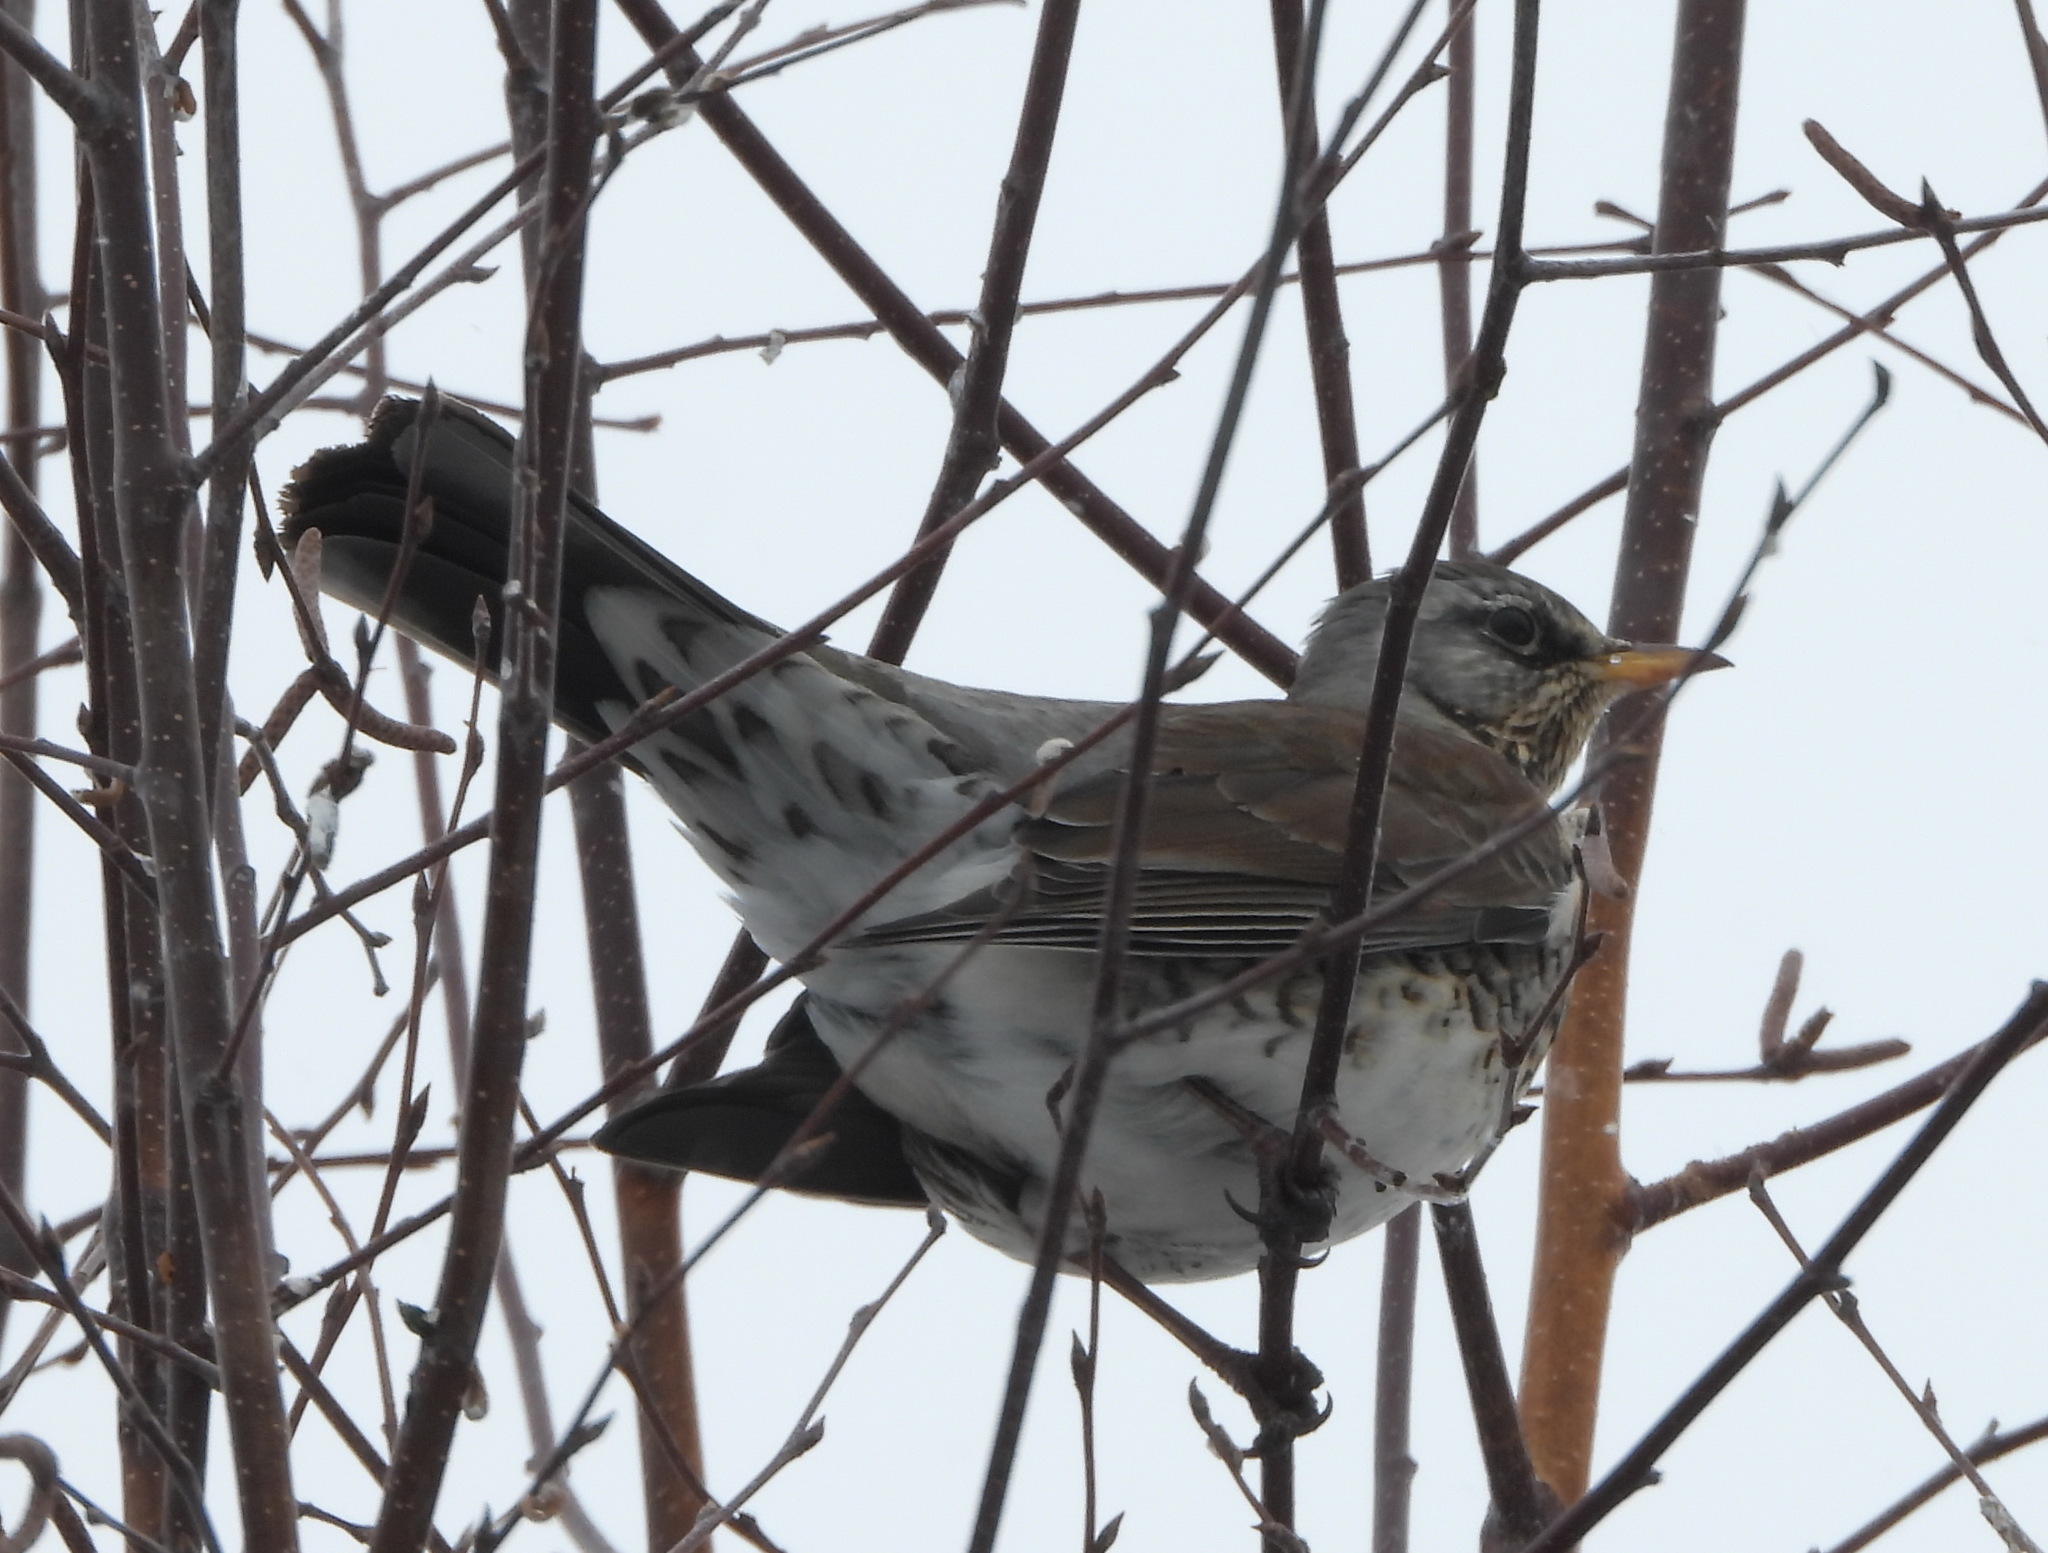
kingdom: Animalia
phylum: Chordata
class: Aves
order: Passeriformes
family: Turdidae
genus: Turdus
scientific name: Turdus pilaris
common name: Fieldfare
